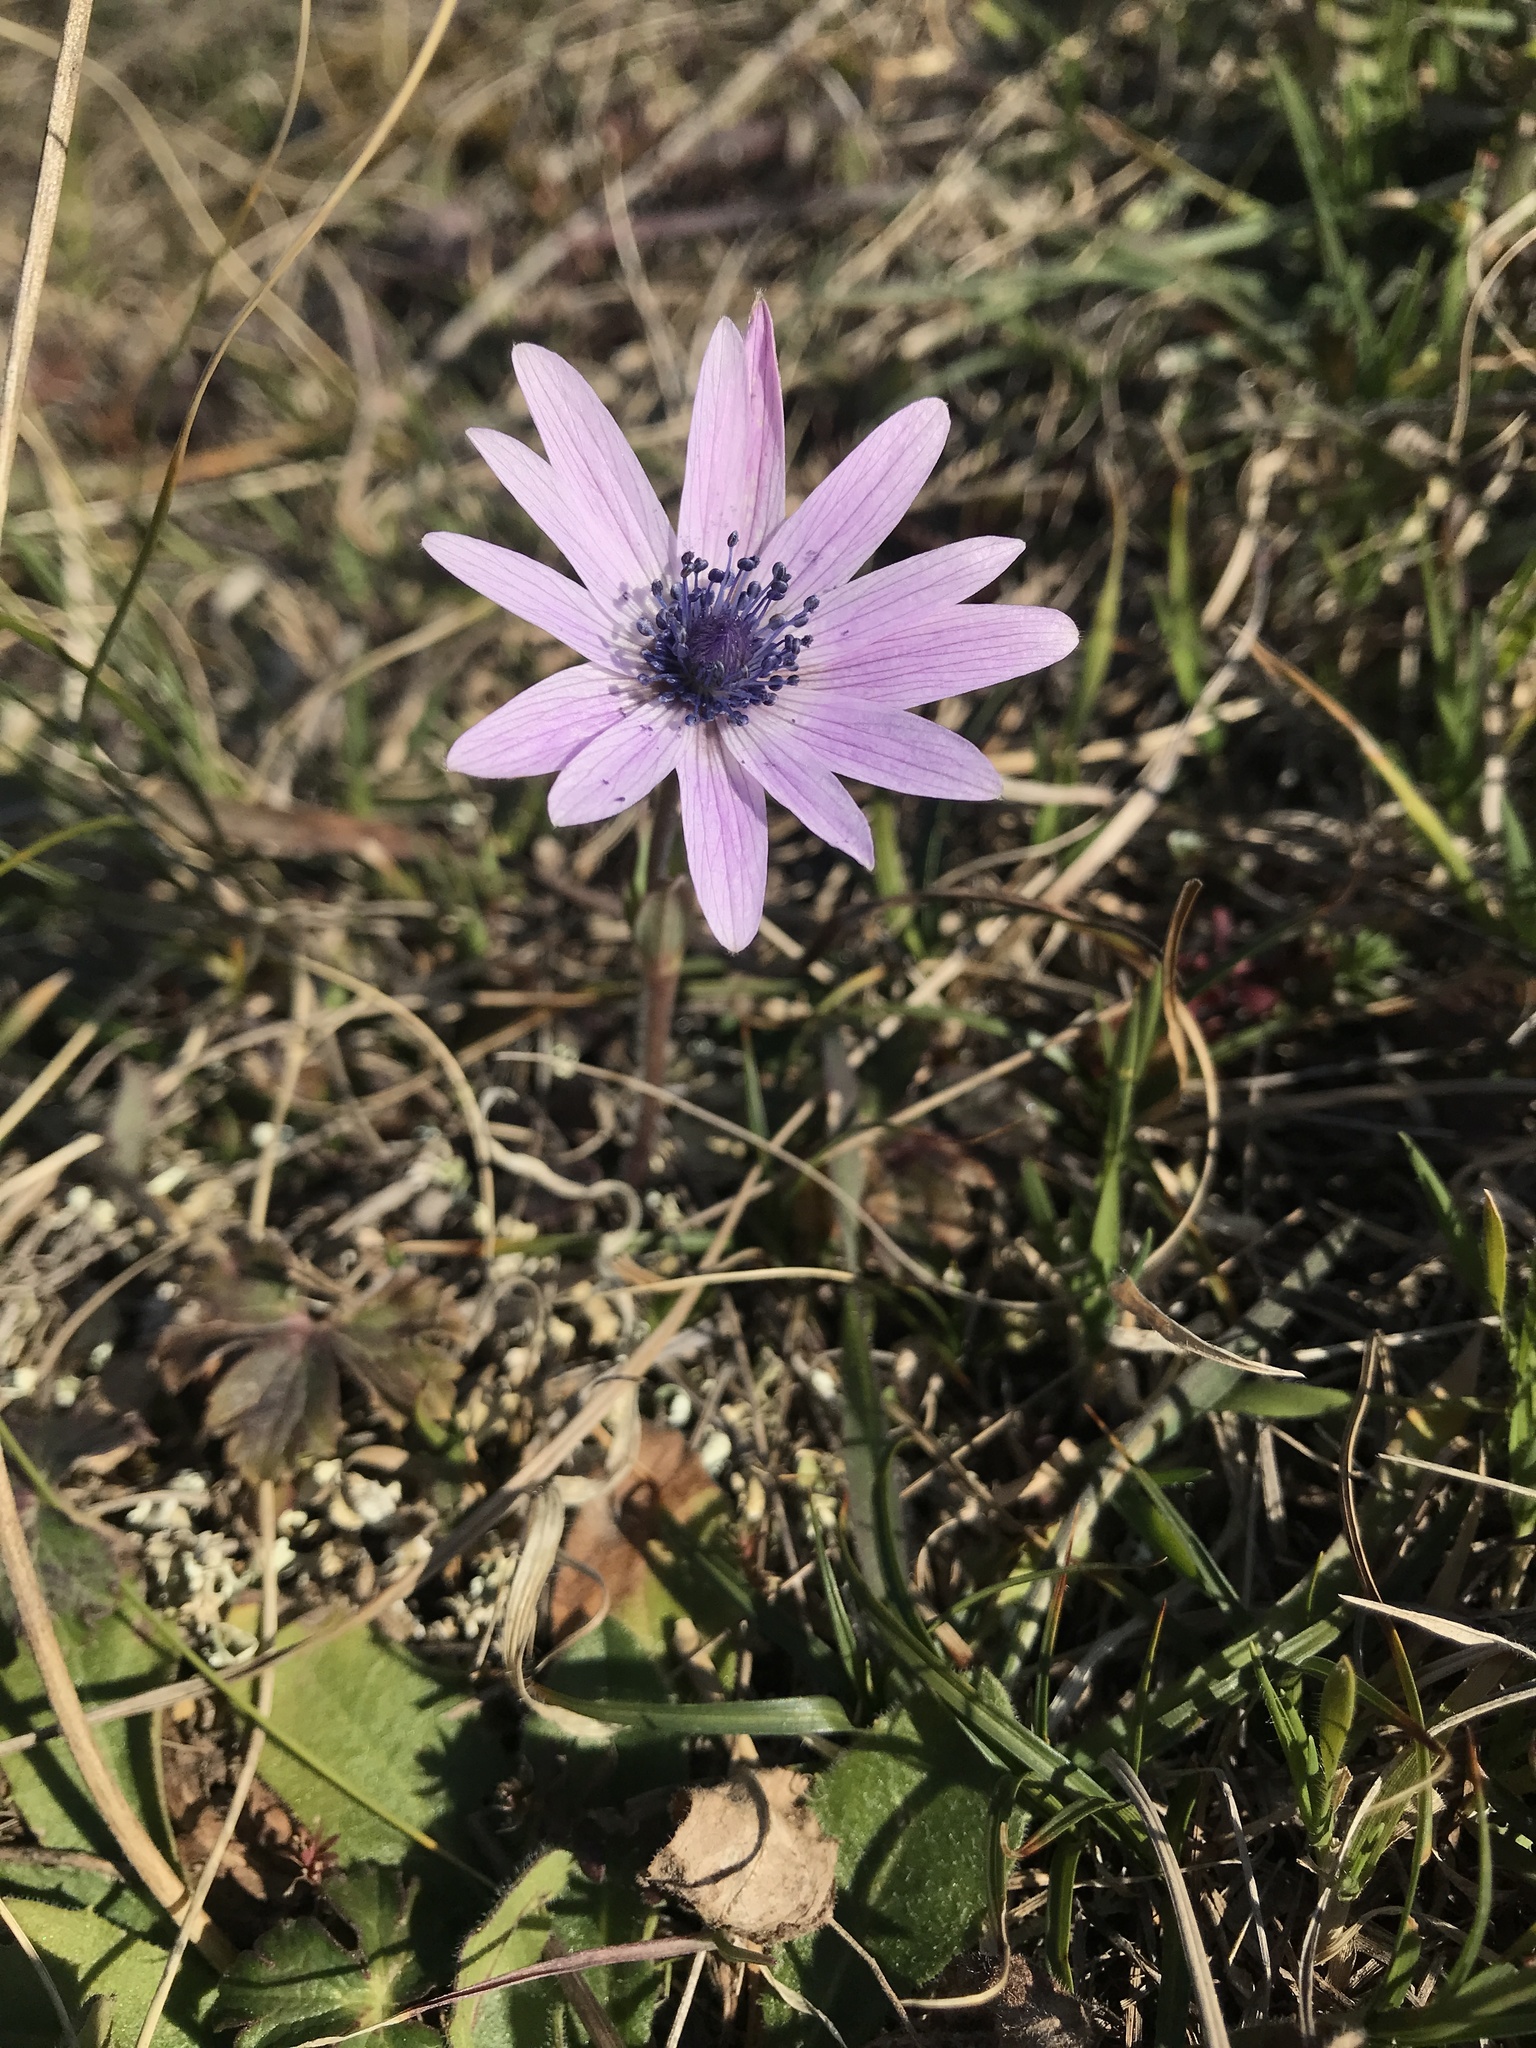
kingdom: Plantae
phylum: Tracheophyta
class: Magnoliopsida
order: Ranunculales
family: Ranunculaceae
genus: Anemone
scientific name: Anemone hortensis
